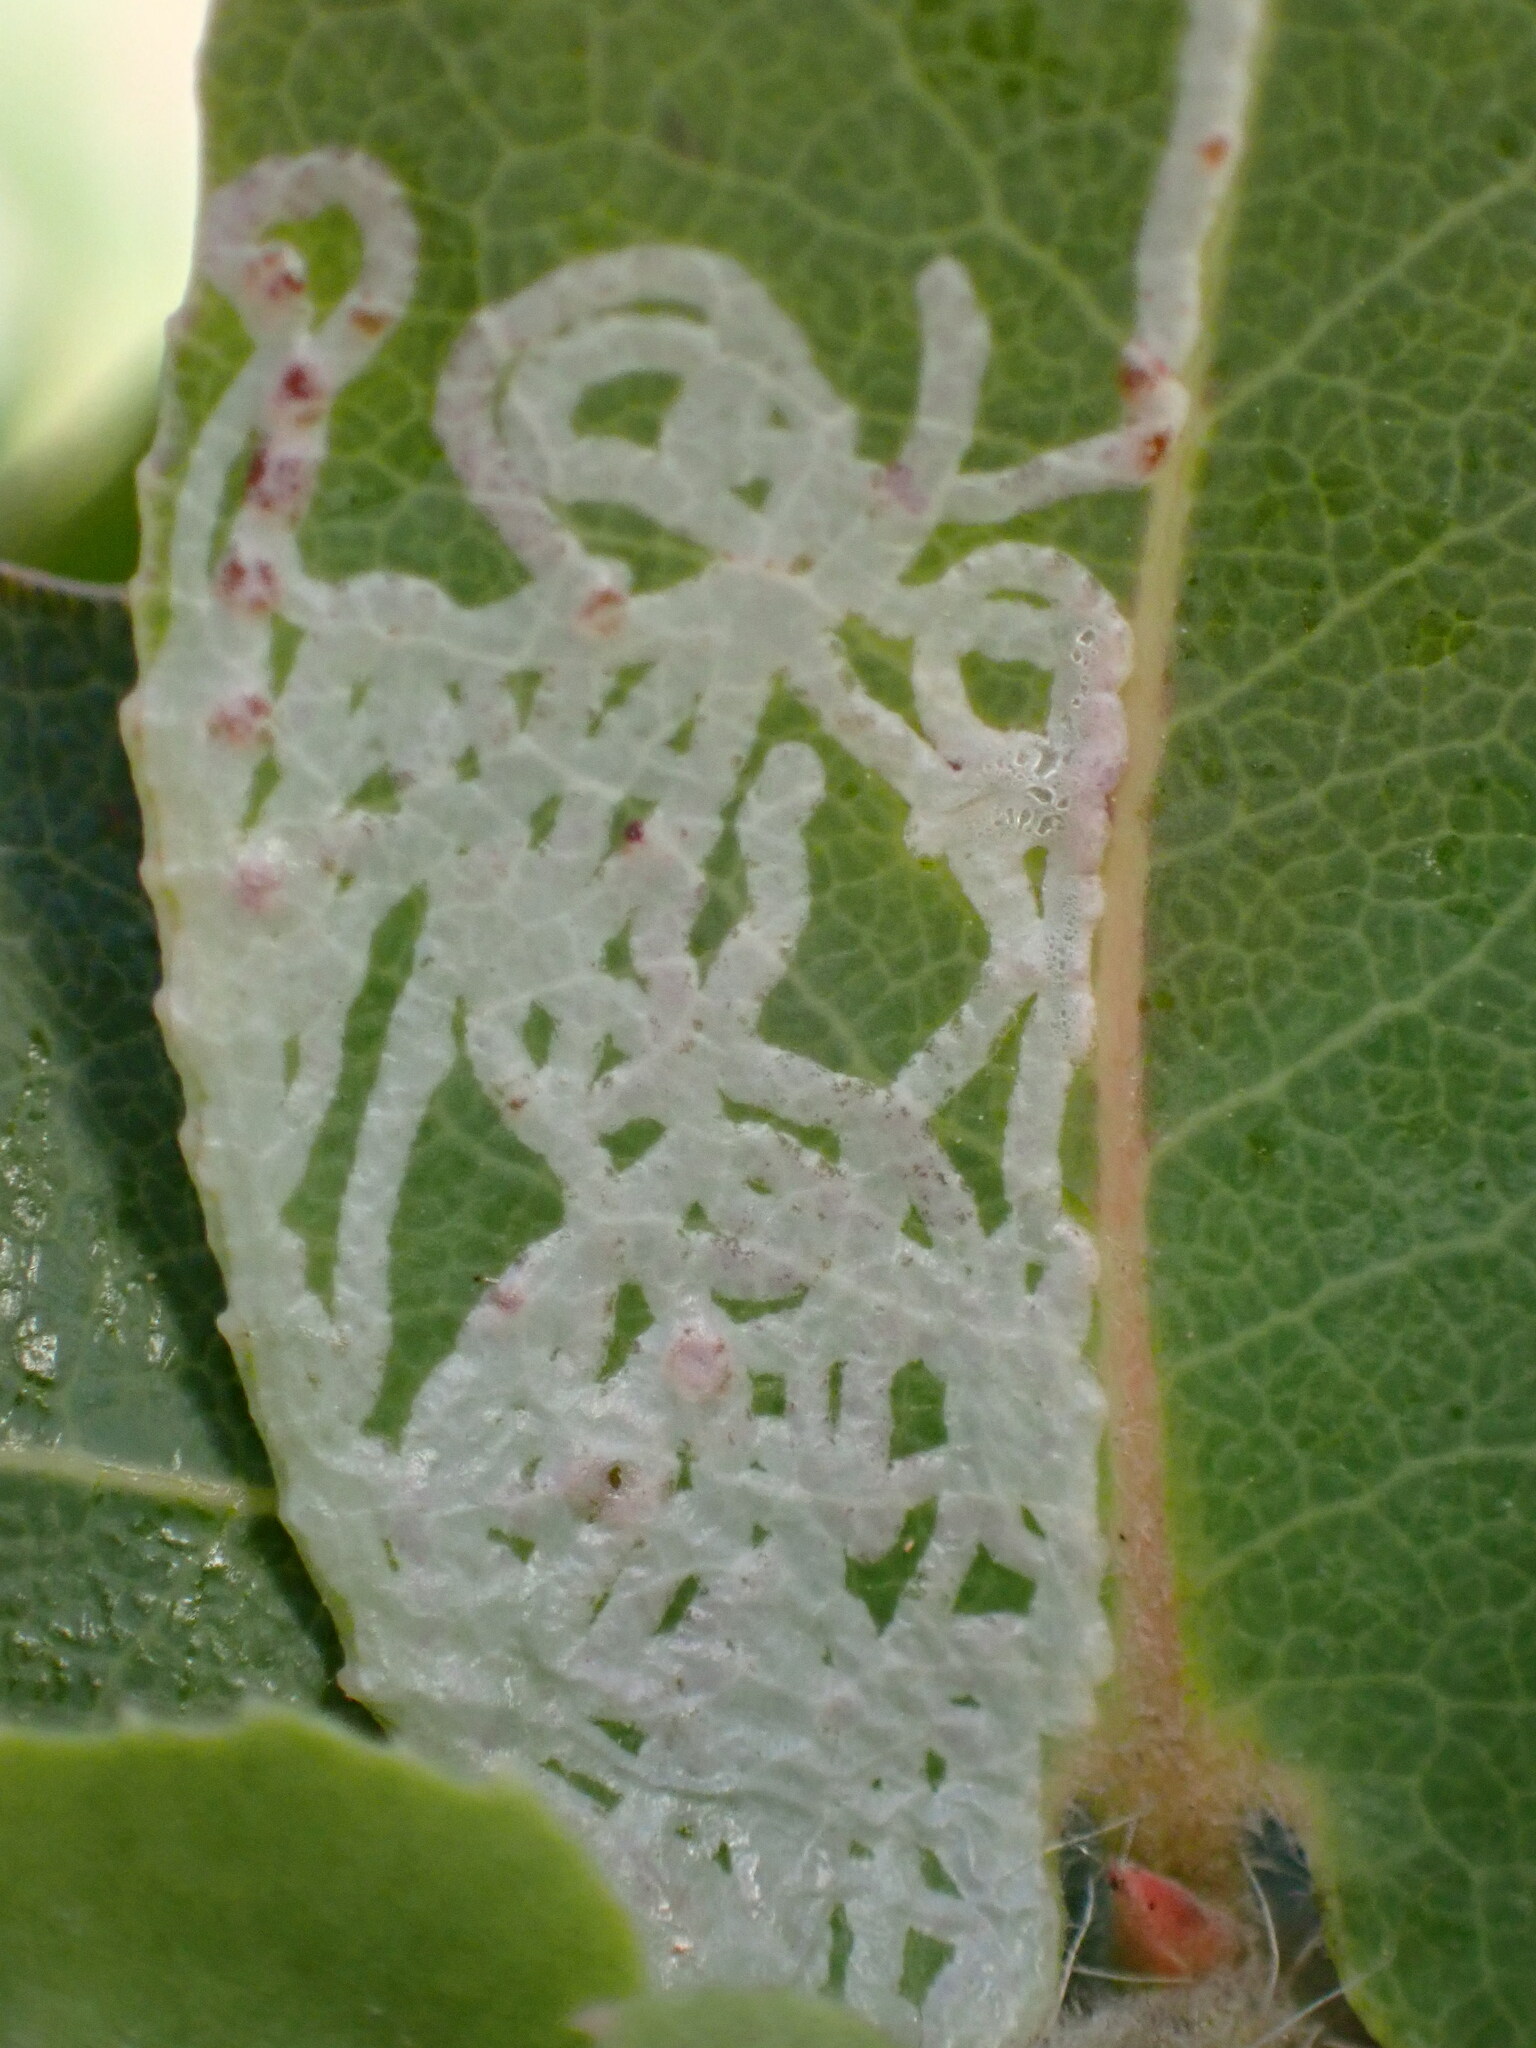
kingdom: Animalia
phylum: Arthropoda
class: Insecta
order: Lepidoptera
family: Gracillariidae
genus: Marmara
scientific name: Marmara arbutiella
